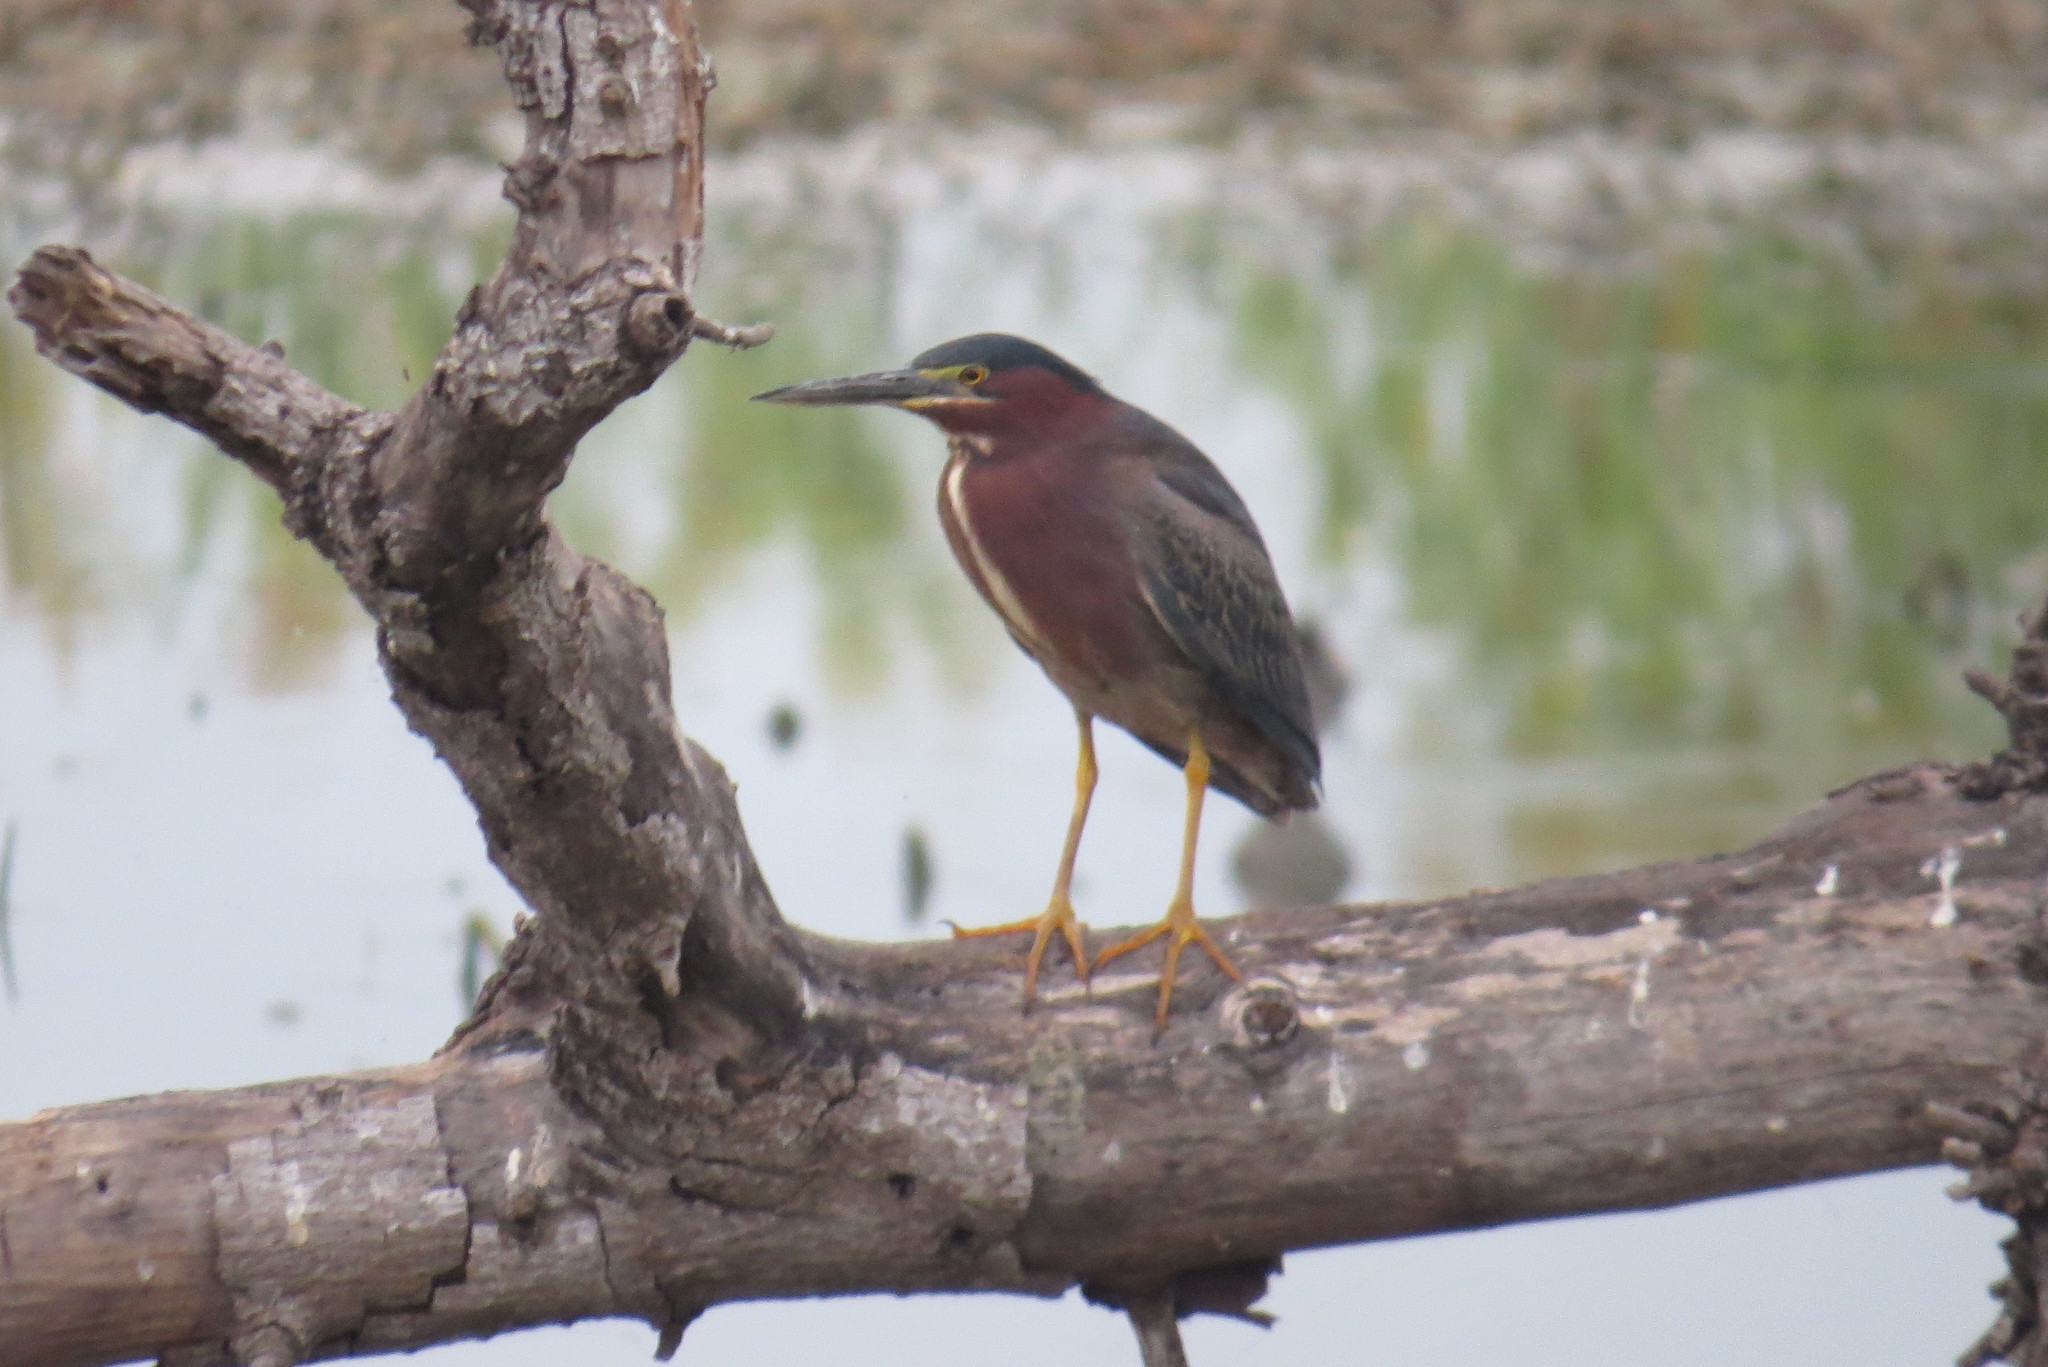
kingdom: Animalia
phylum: Chordata
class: Aves
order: Pelecaniformes
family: Ardeidae
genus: Butorides
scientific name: Butorides virescens
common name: Green heron
